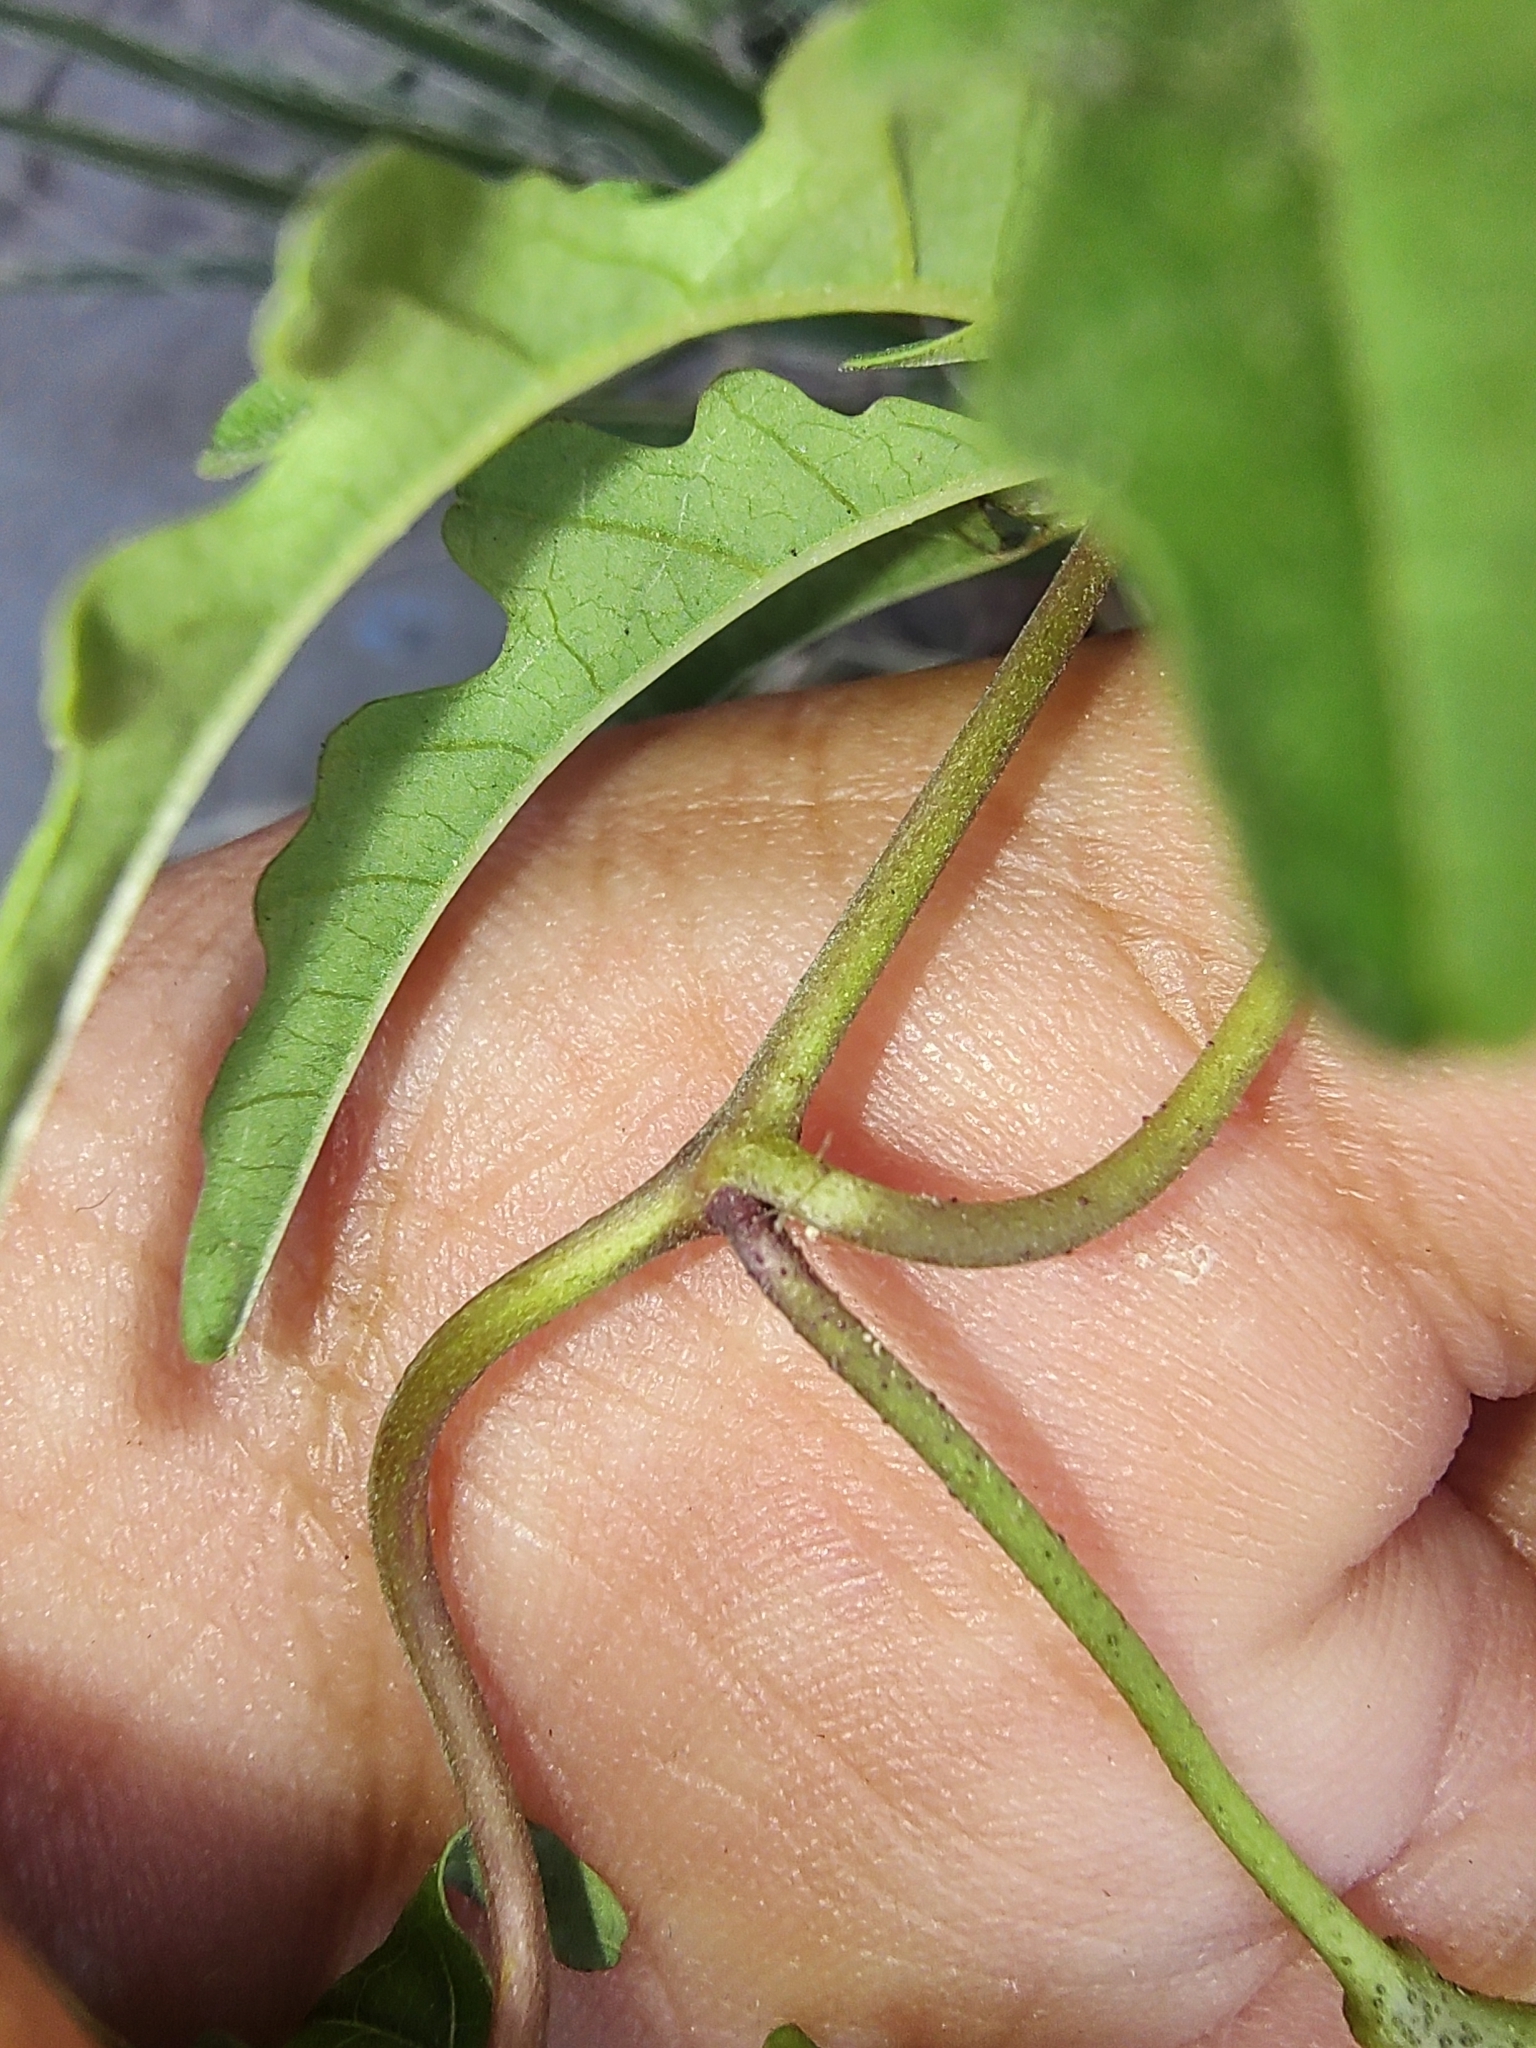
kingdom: Plantae
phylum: Tracheophyta
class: Magnoliopsida
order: Solanales
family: Convolvulaceae
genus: Distimake
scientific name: Distimake dissectus
